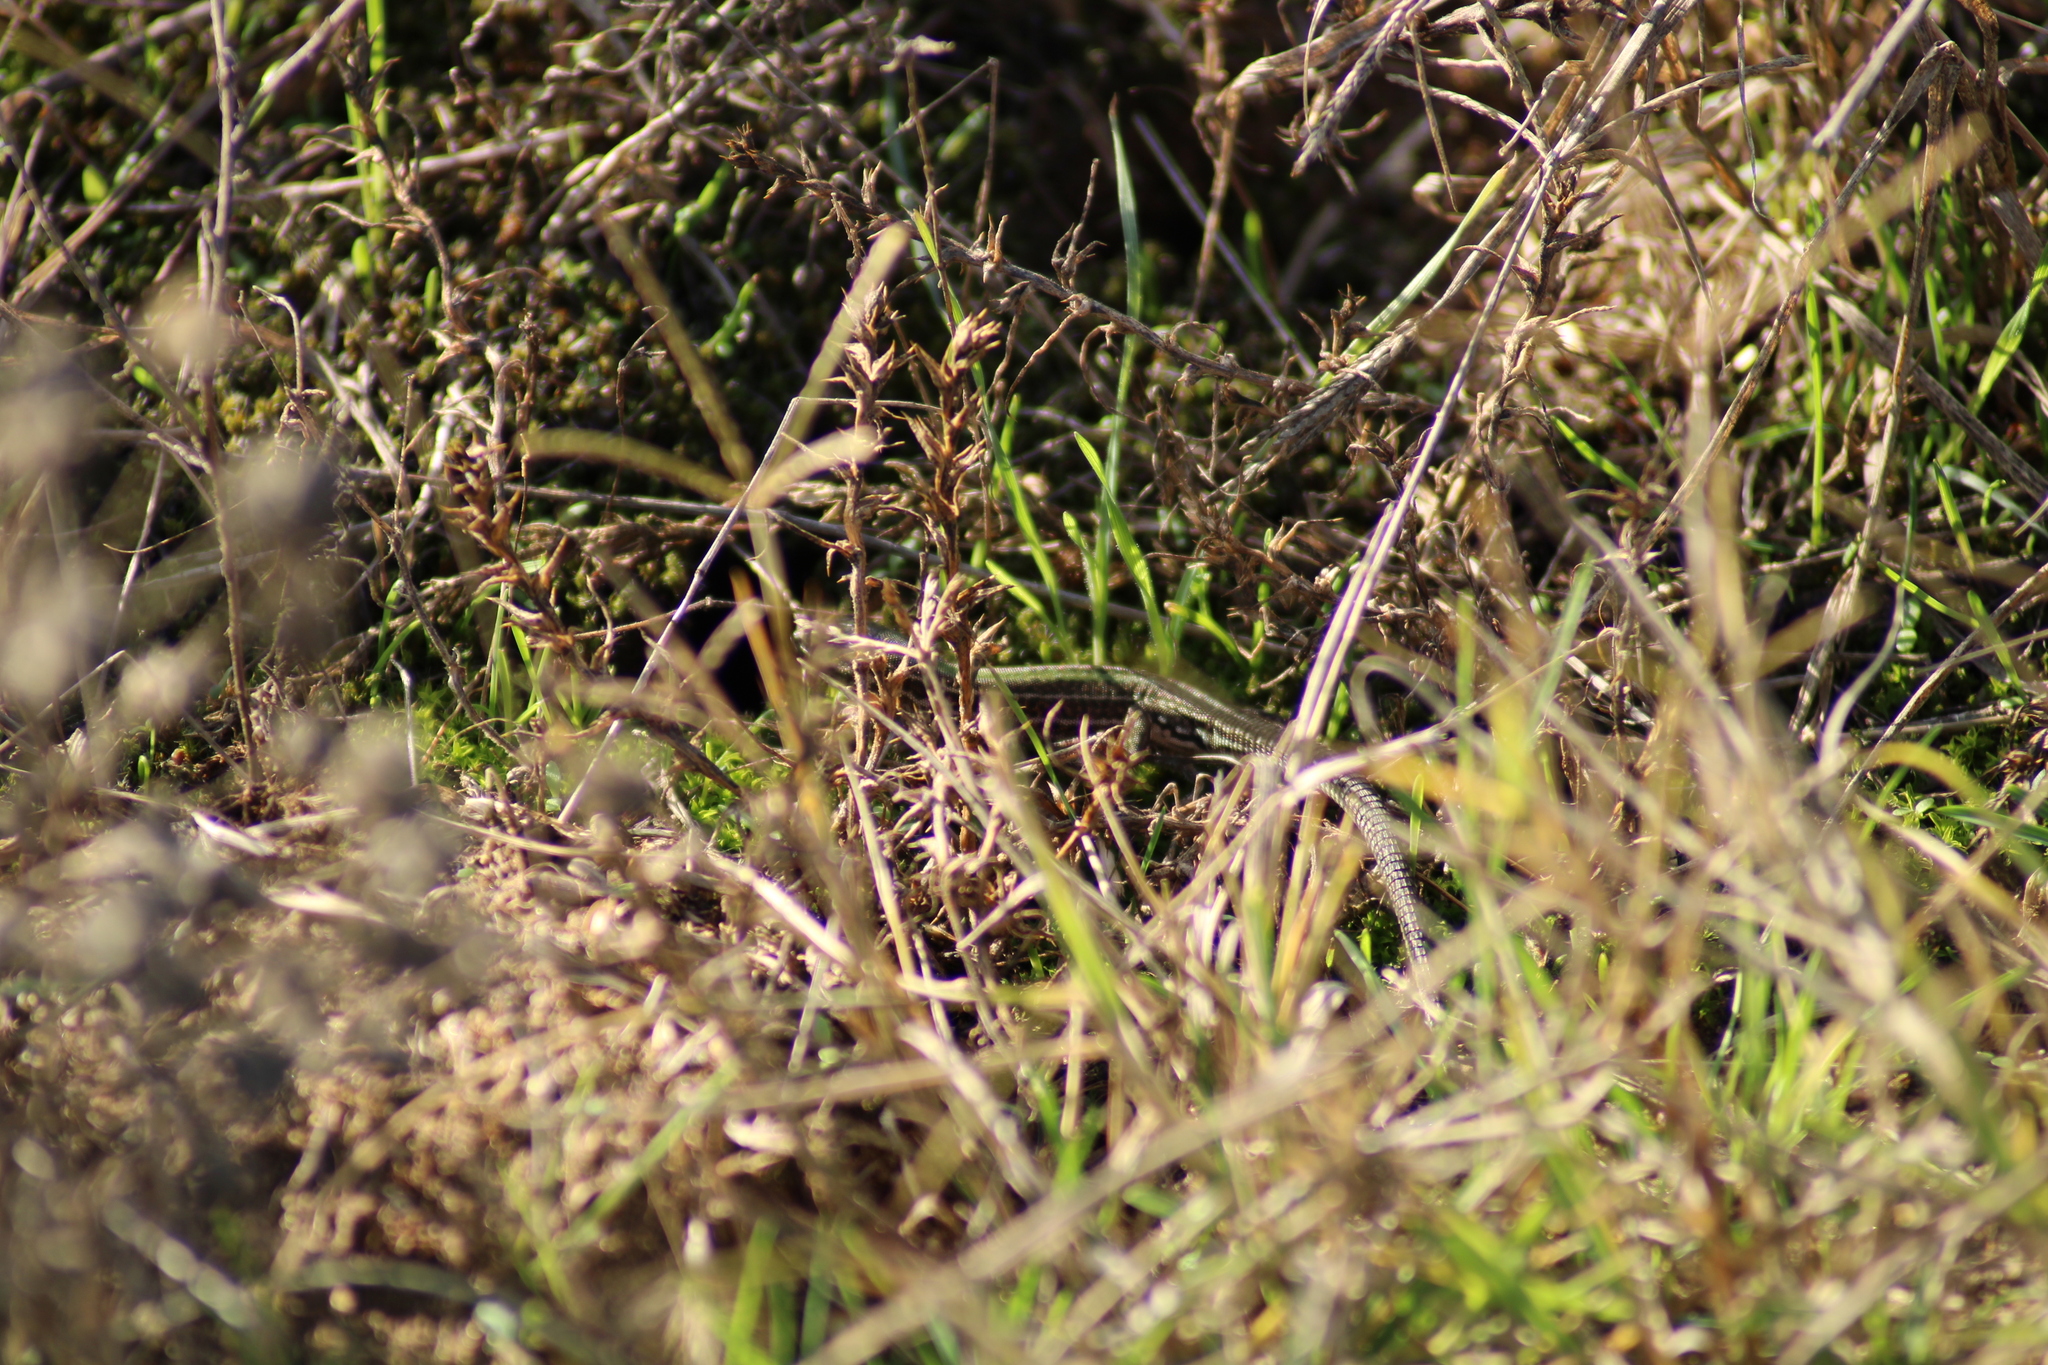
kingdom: Animalia
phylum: Chordata
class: Squamata
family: Lacertidae
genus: Podarcis
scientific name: Podarcis tauricus
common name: Balkan wall lizard
